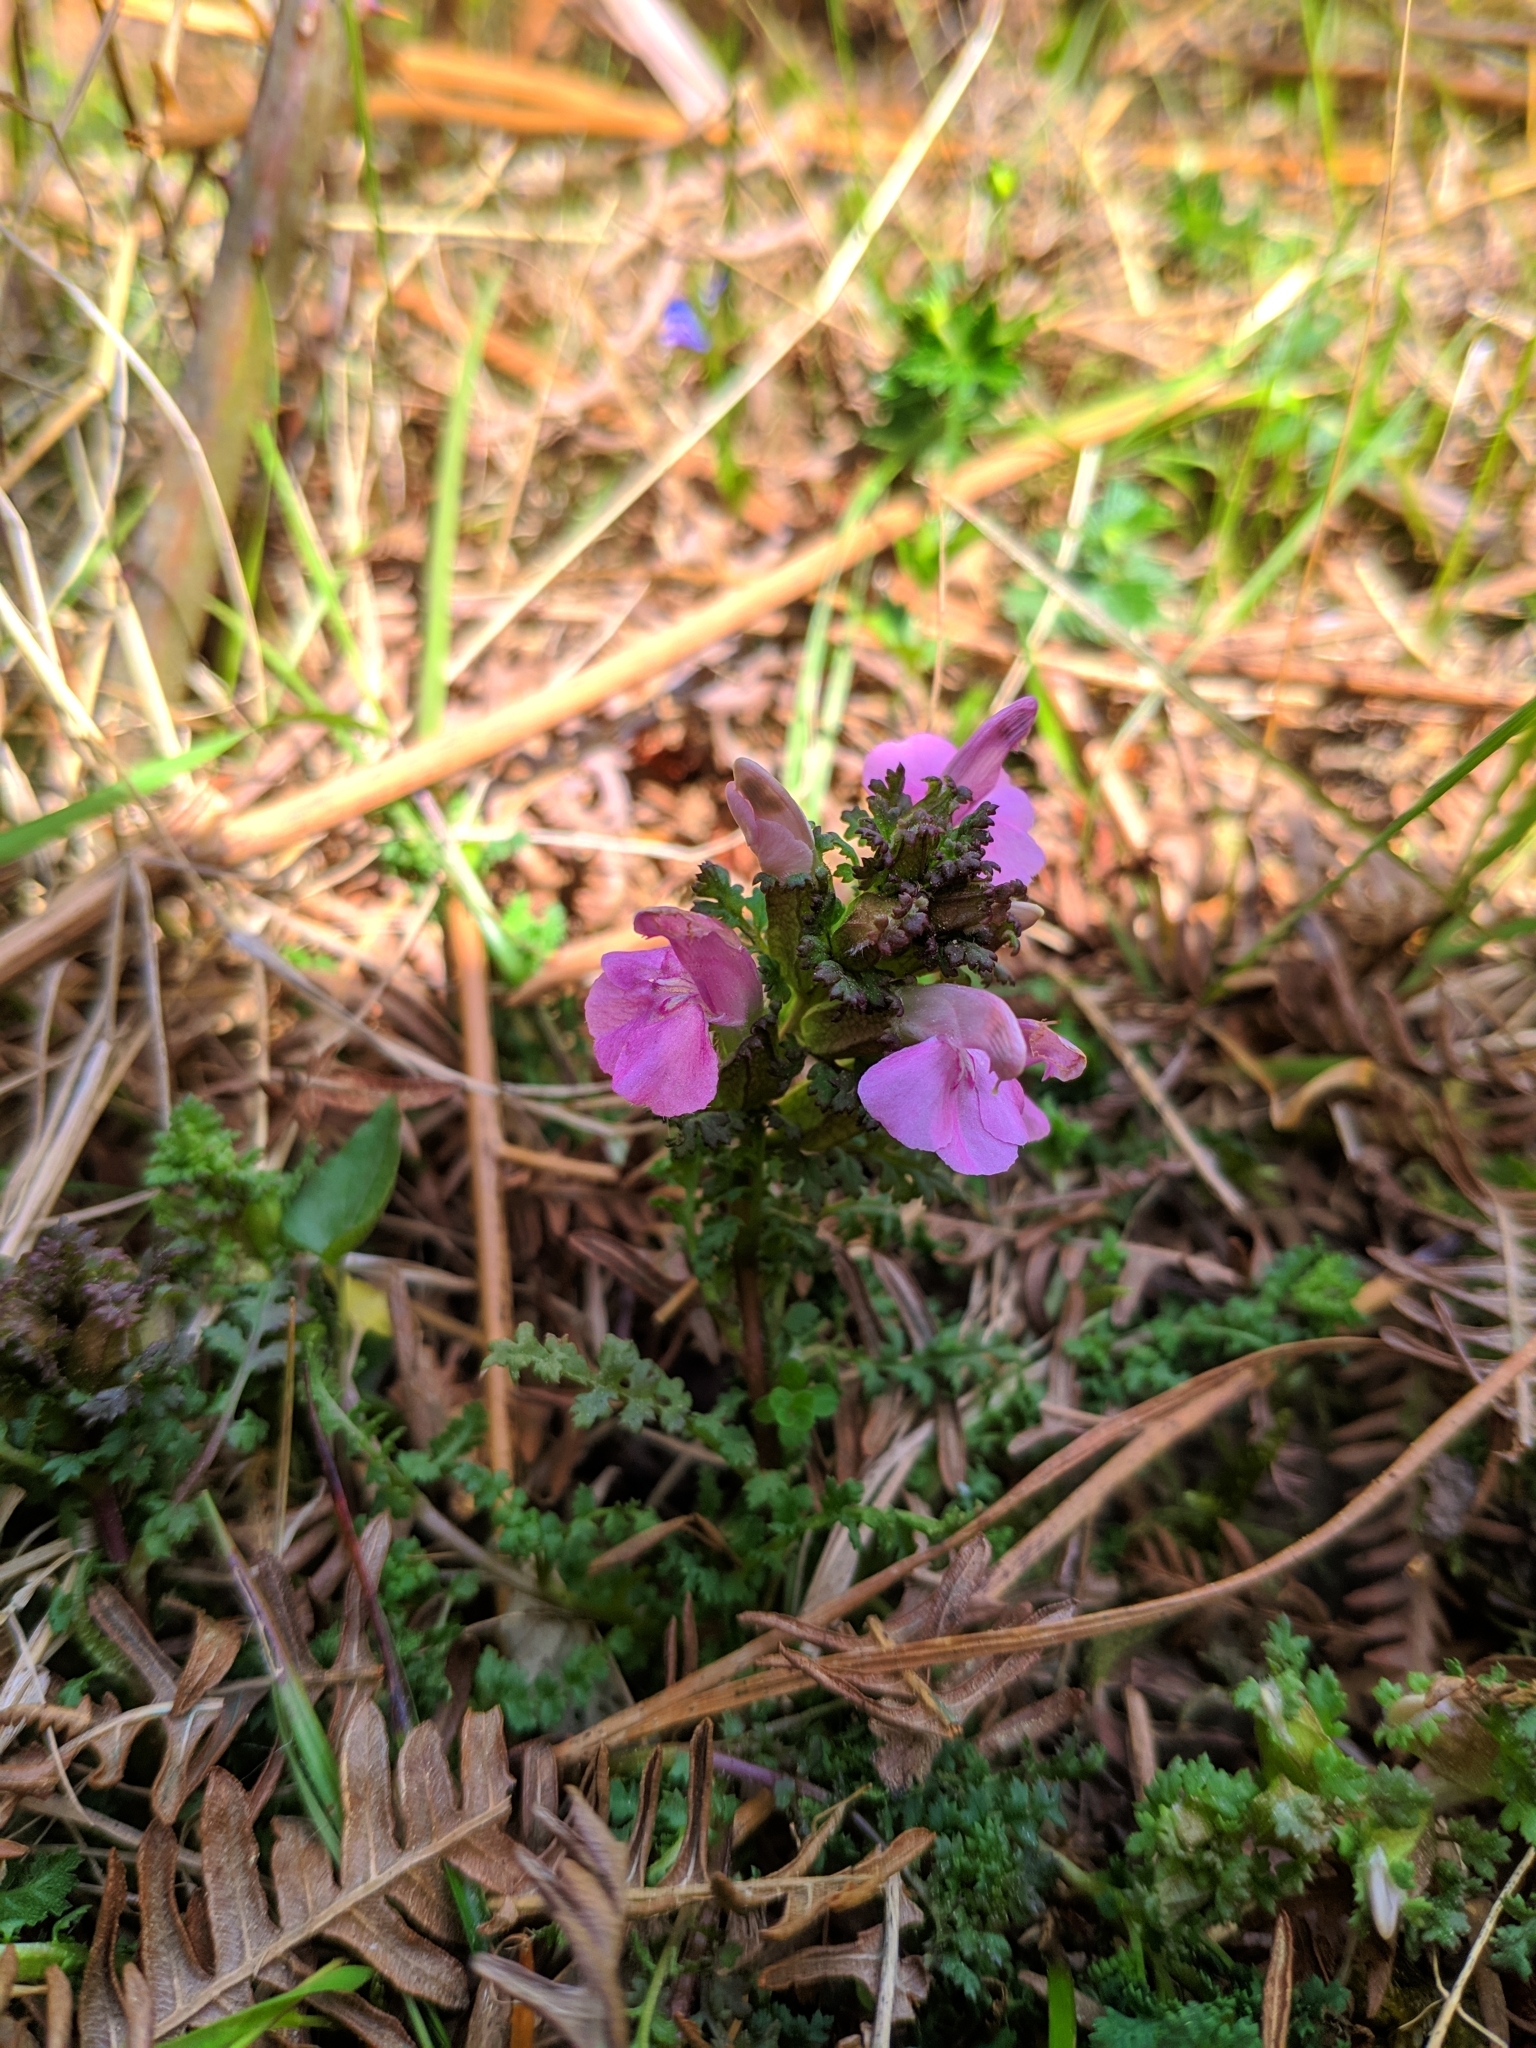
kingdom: Plantae
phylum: Tracheophyta
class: Magnoliopsida
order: Lamiales
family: Orobanchaceae
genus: Pedicularis
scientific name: Pedicularis sylvatica
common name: Lousewort
